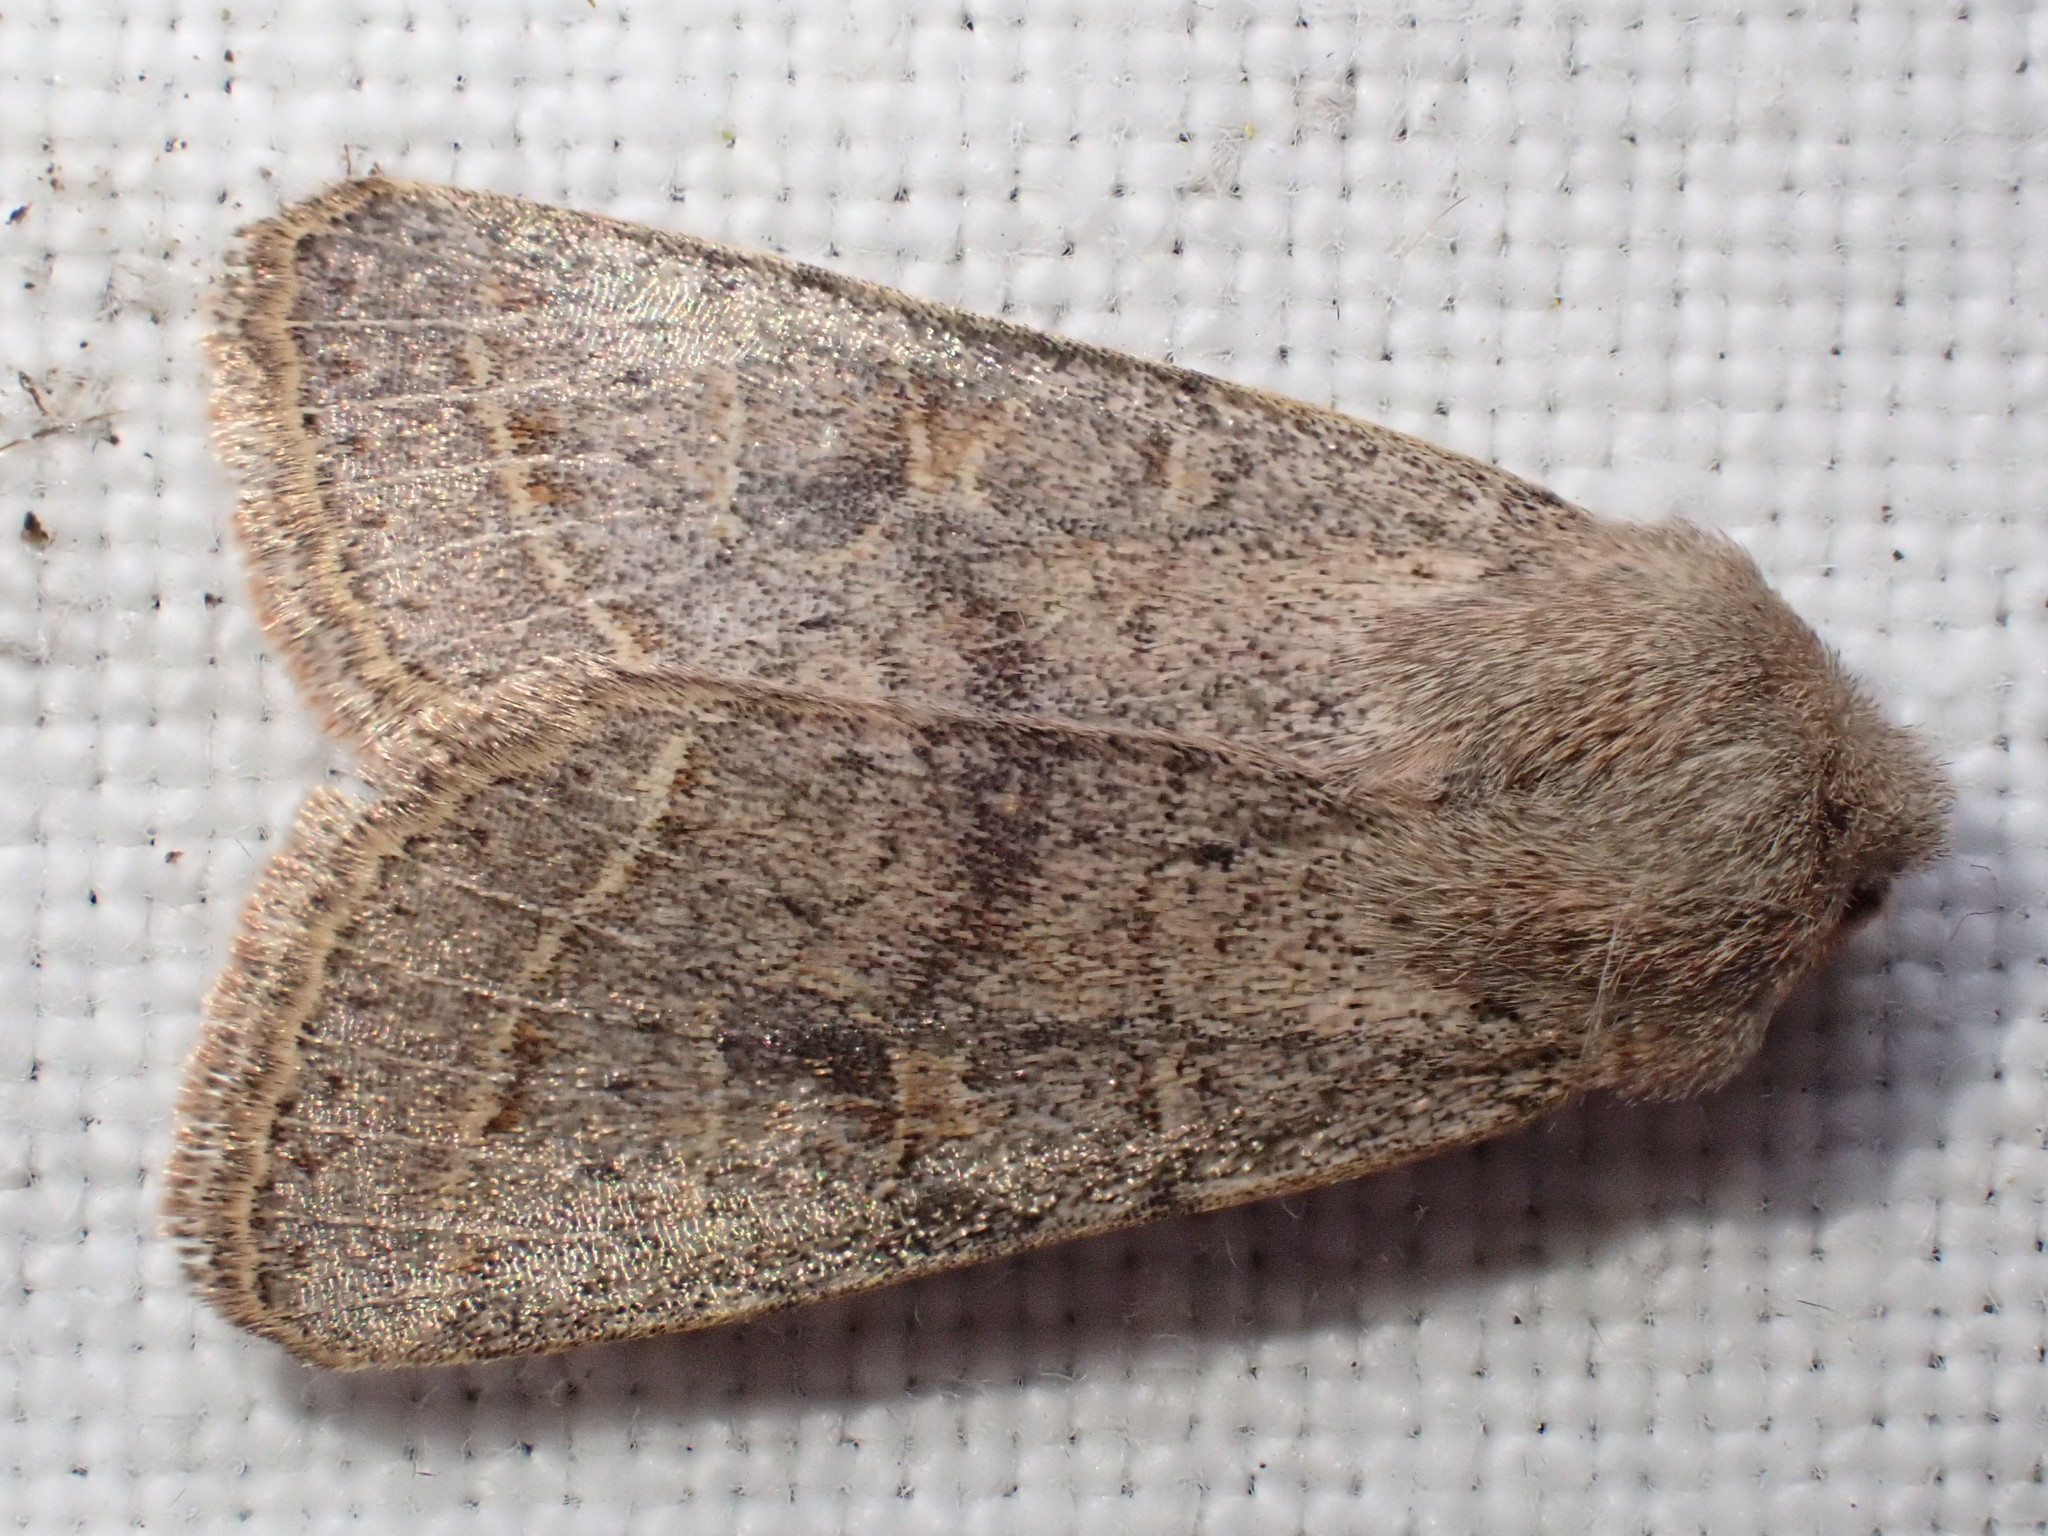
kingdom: Animalia
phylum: Arthropoda
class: Insecta
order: Lepidoptera
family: Noctuidae
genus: Orthosia
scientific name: Orthosia cerasi
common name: Common quaker
